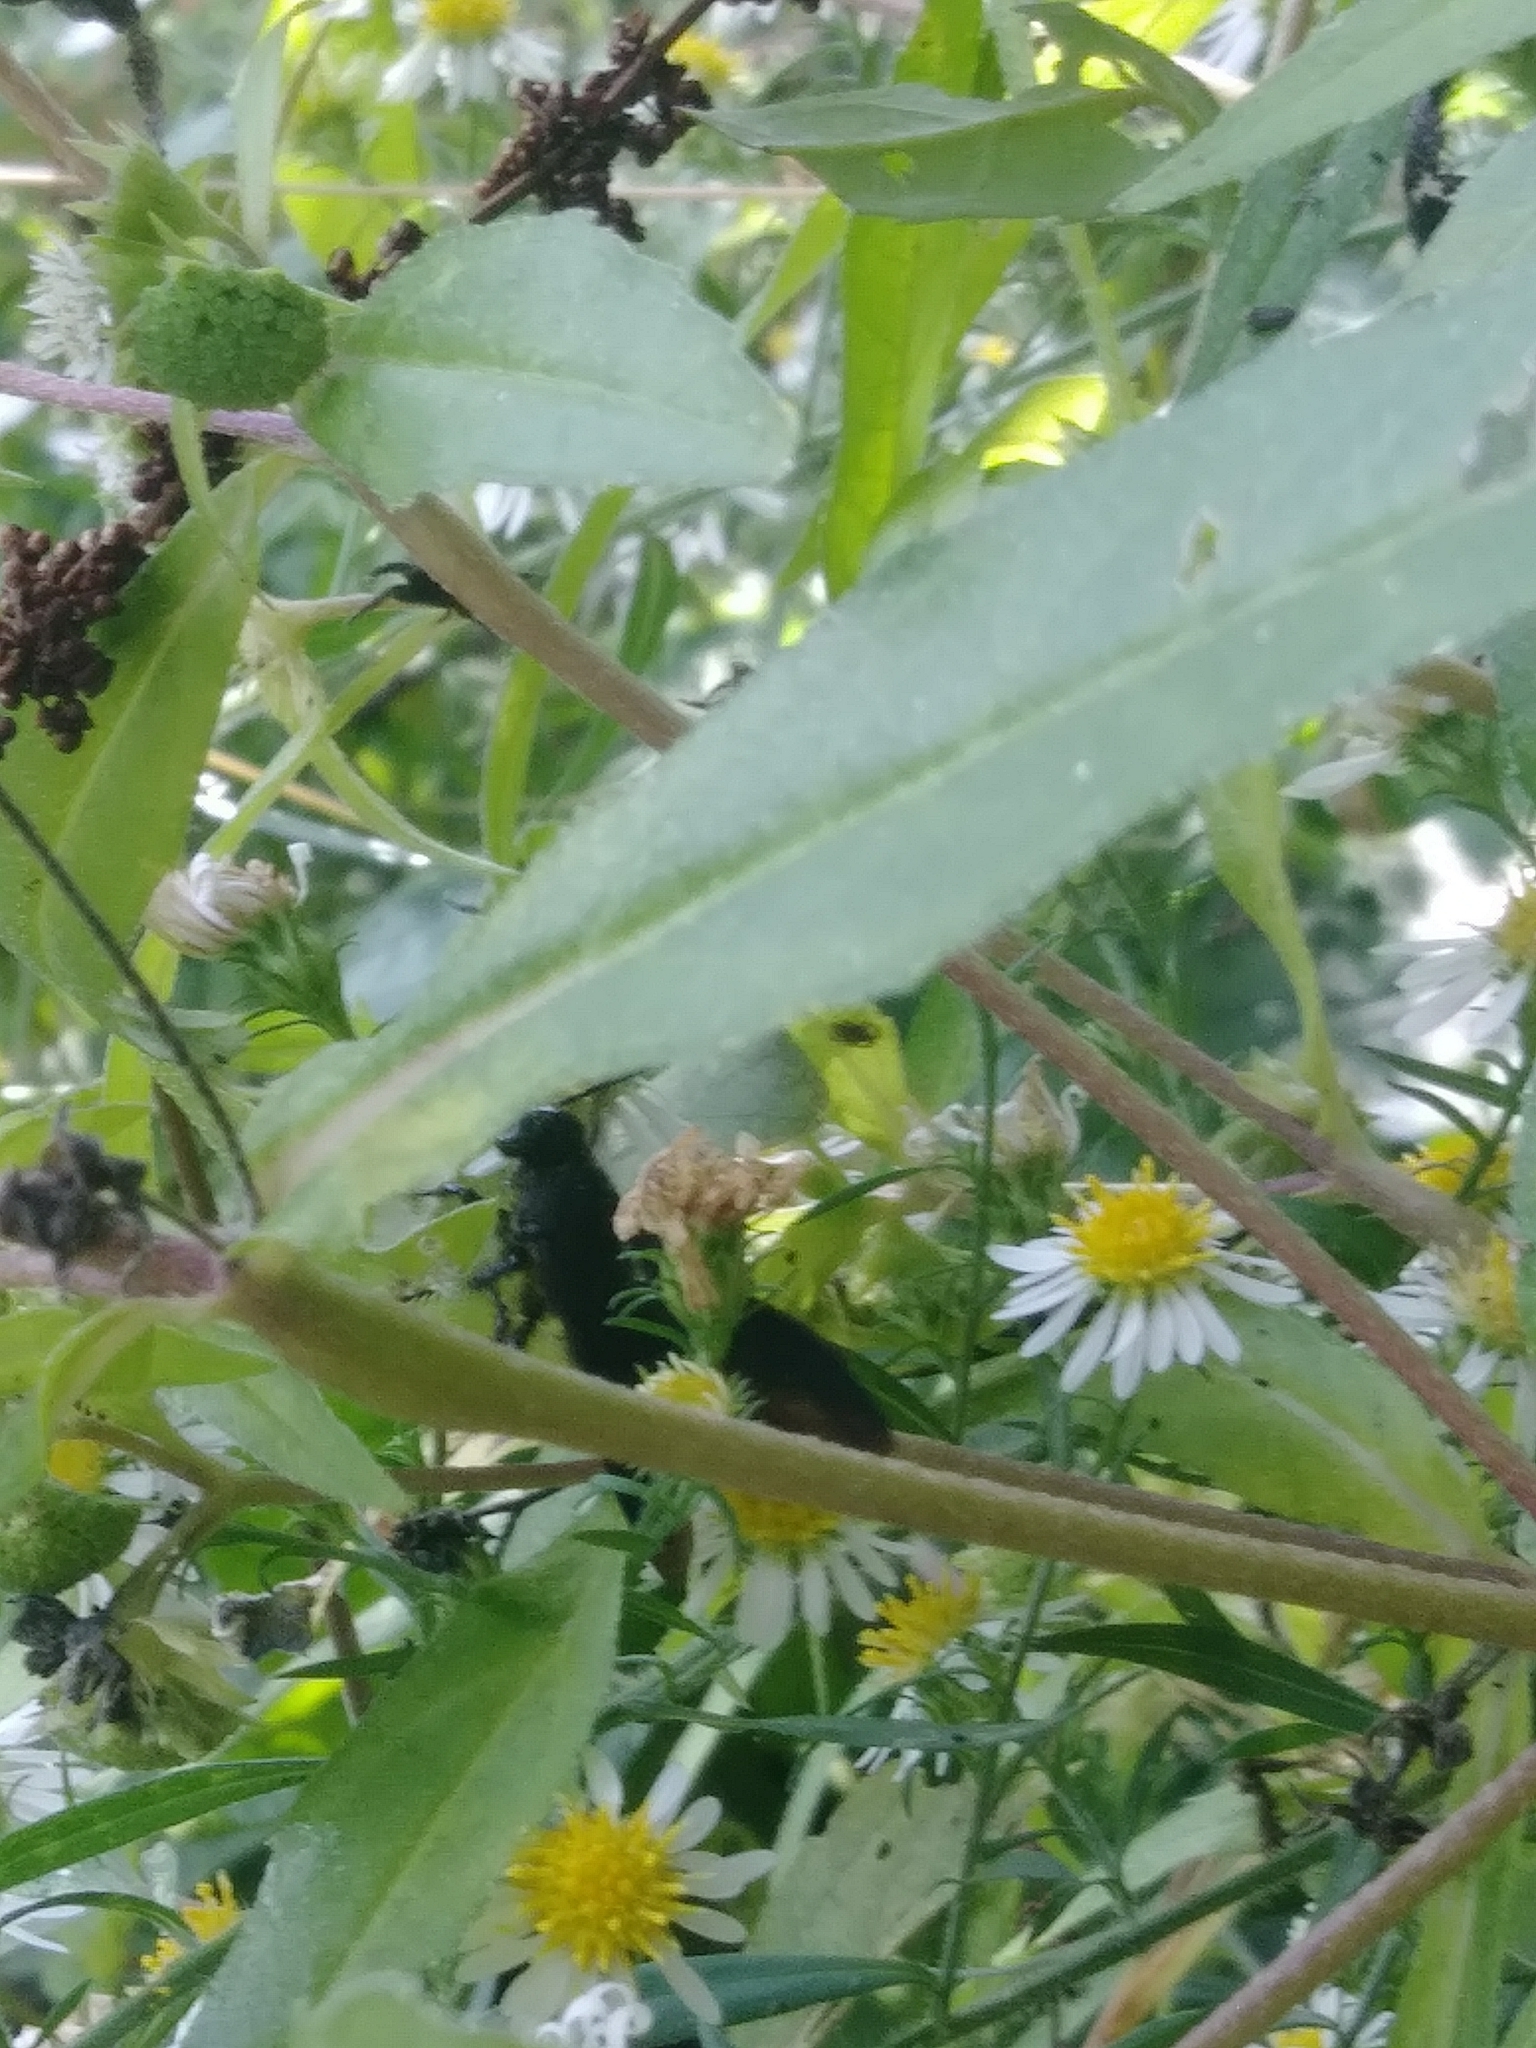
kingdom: Animalia
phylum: Arthropoda
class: Insecta
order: Hymenoptera
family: Scoliidae
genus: Scolia
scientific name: Scolia dubia
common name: Blue-winged scoliid wasp
